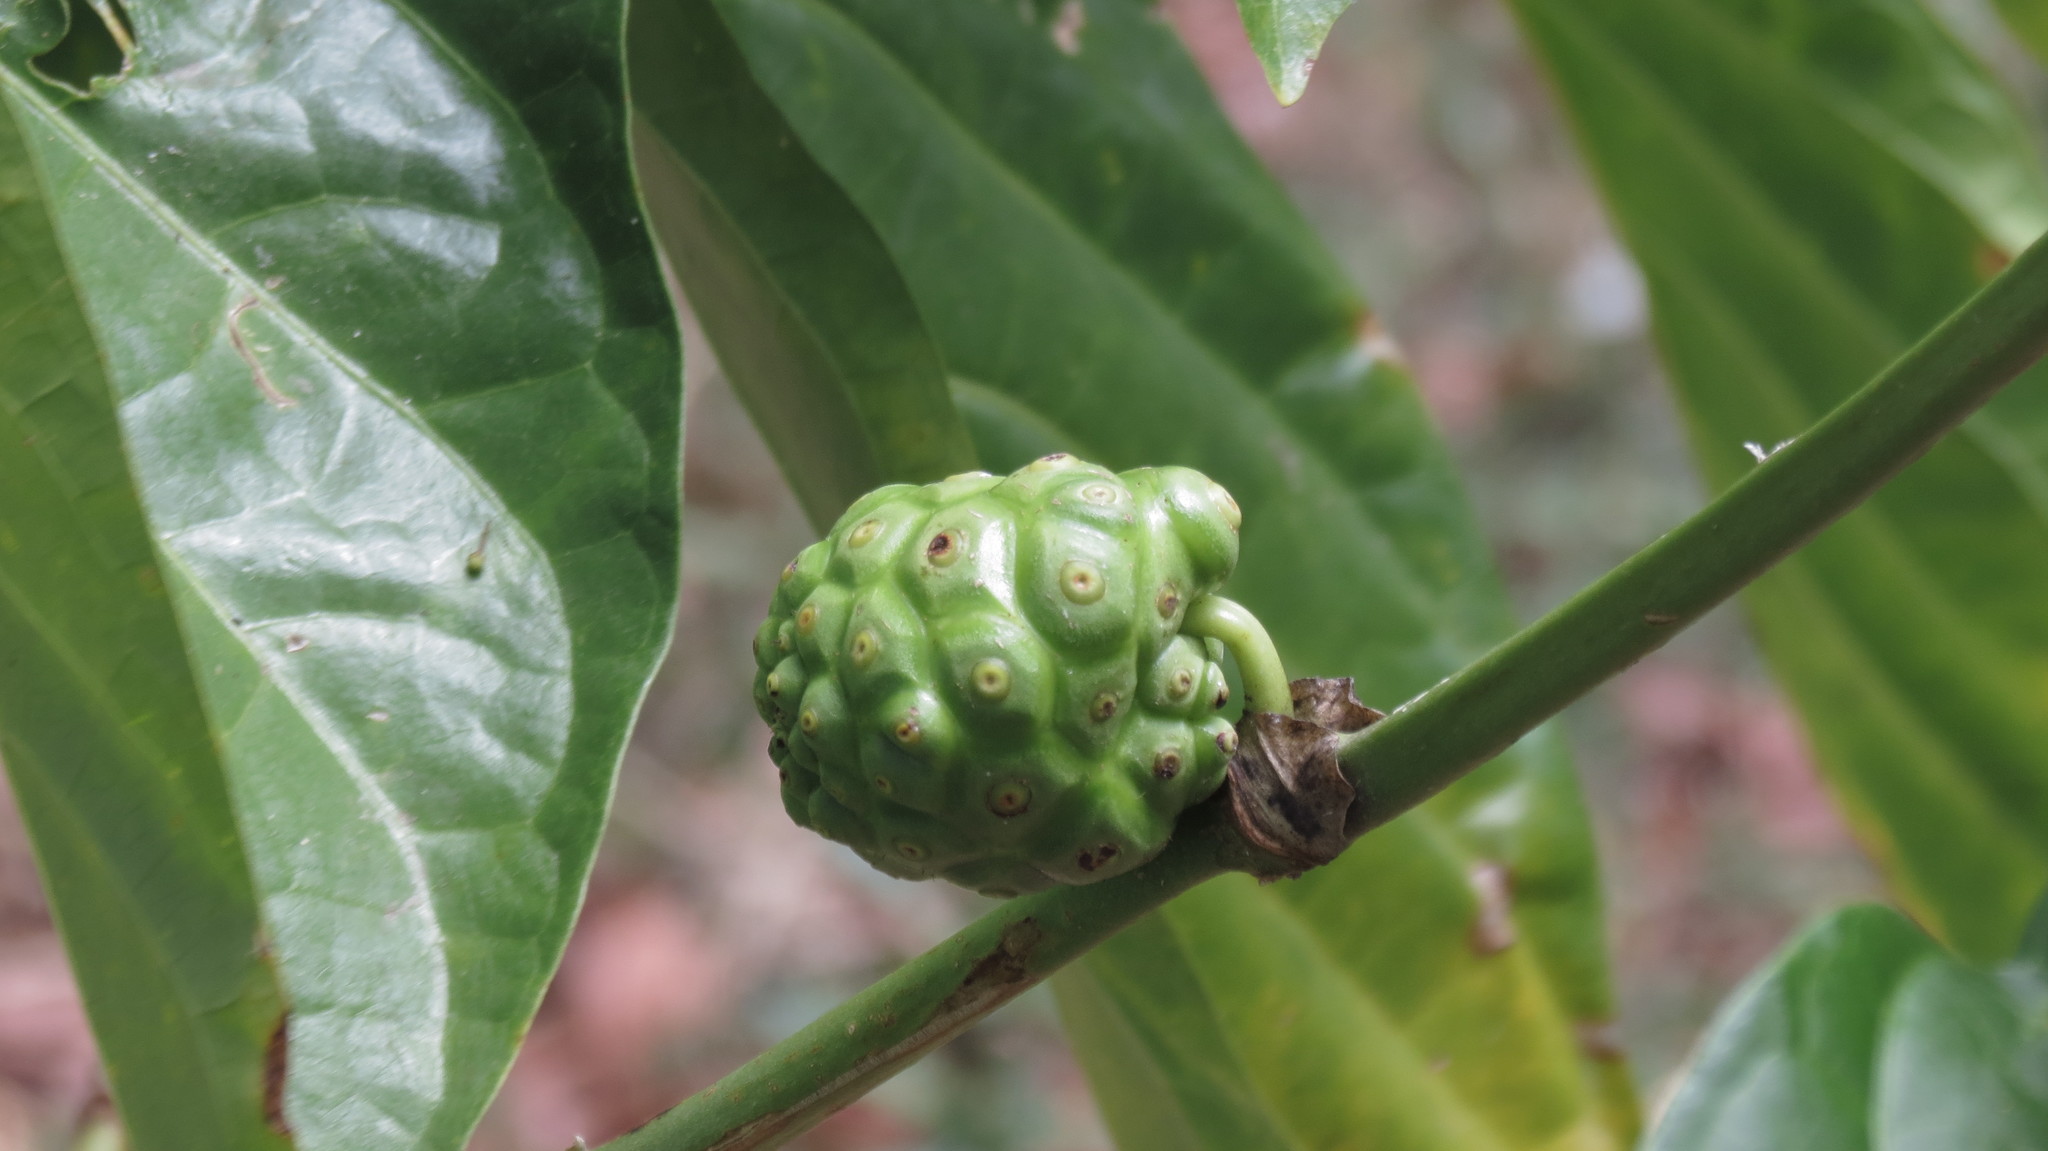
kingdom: Plantae
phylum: Tracheophyta
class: Magnoliopsida
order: Gentianales
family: Rubiaceae
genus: Morinda
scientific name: Morinda citrifolia
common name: Indian-mulberry
